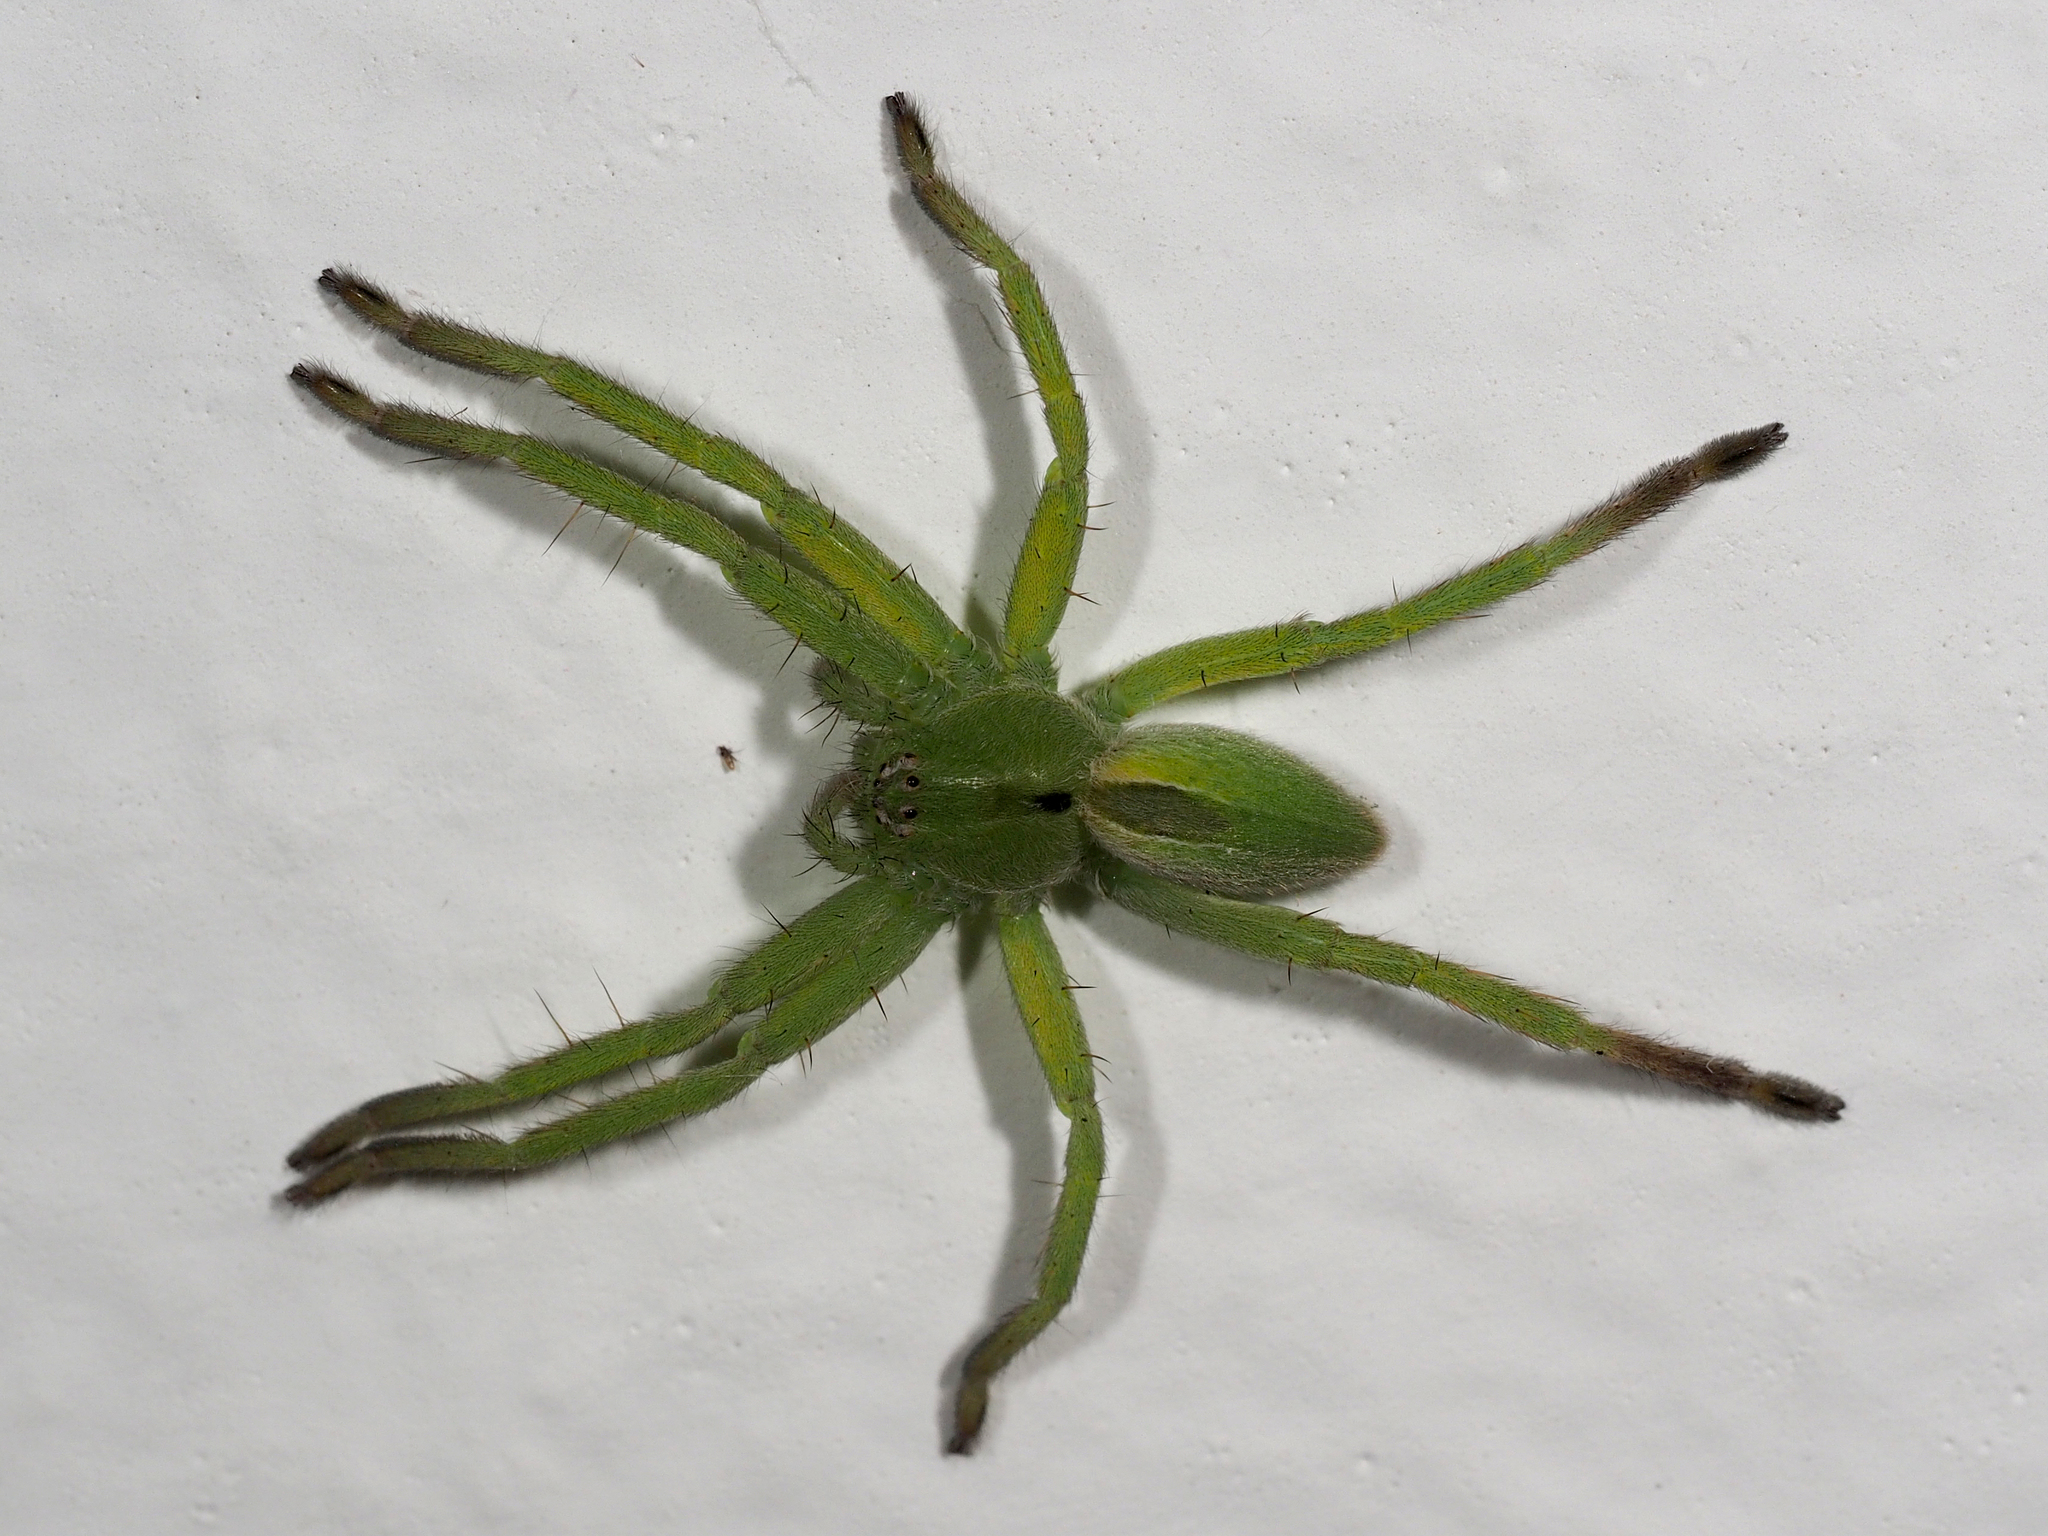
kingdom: Animalia
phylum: Arthropoda
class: Arachnida
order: Araneae
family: Sparassidae
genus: Micrommata
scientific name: Micrommata ligurina
